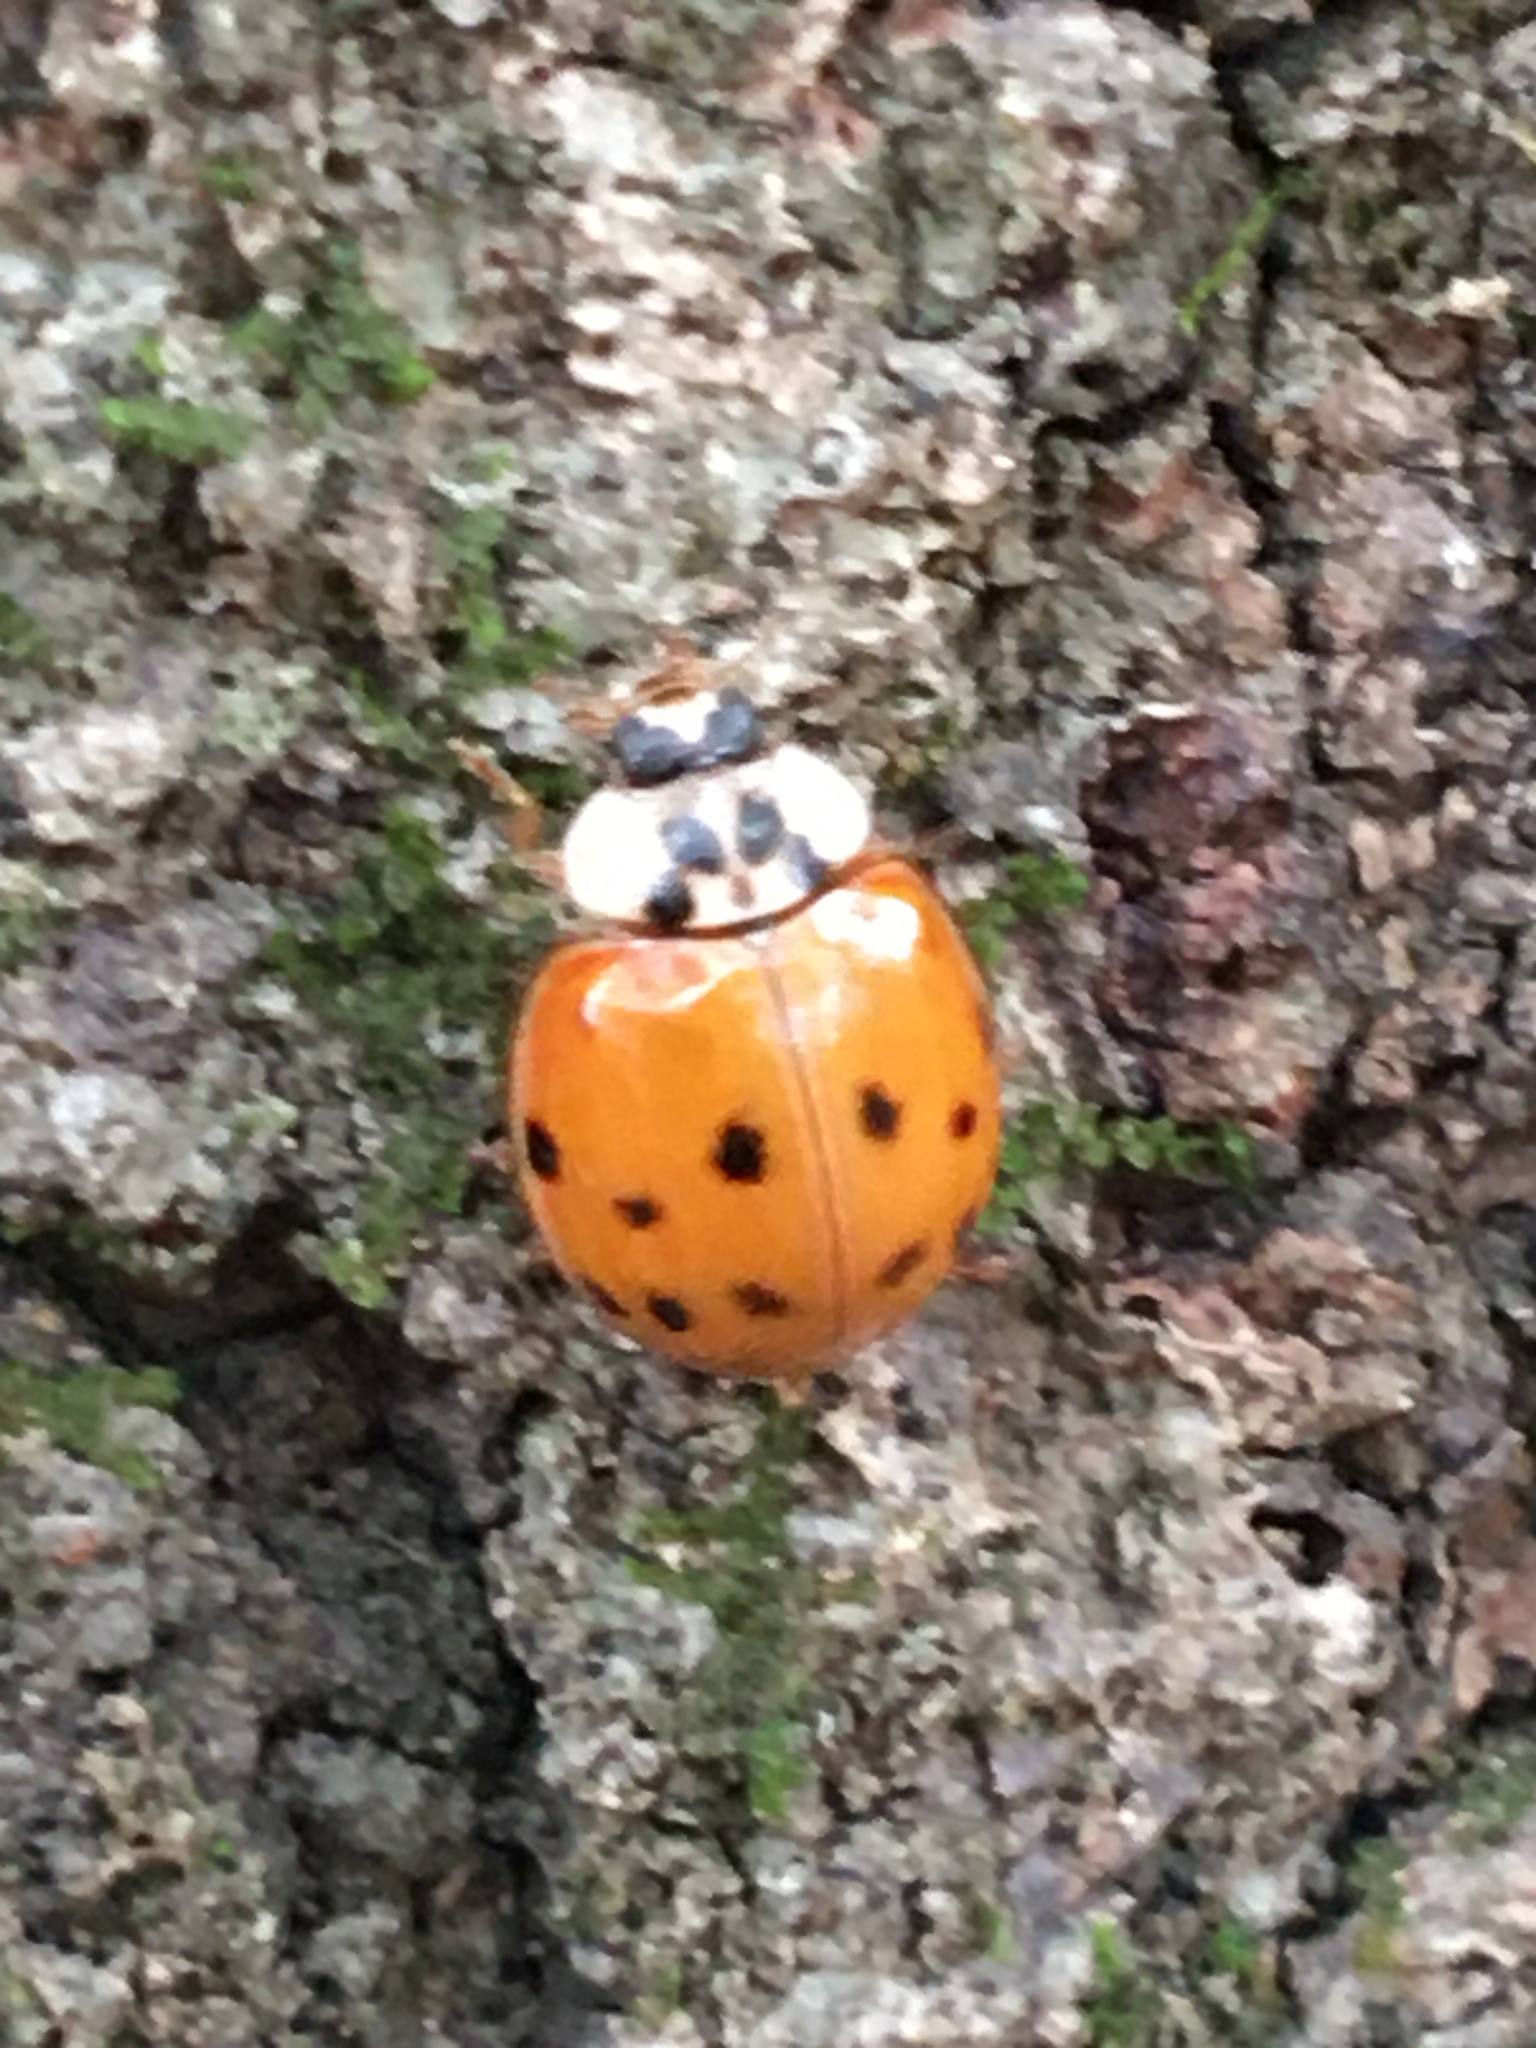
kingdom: Animalia
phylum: Arthropoda
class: Insecta
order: Coleoptera
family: Coccinellidae
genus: Harmonia
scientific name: Harmonia axyridis
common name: Harlequin ladybird
